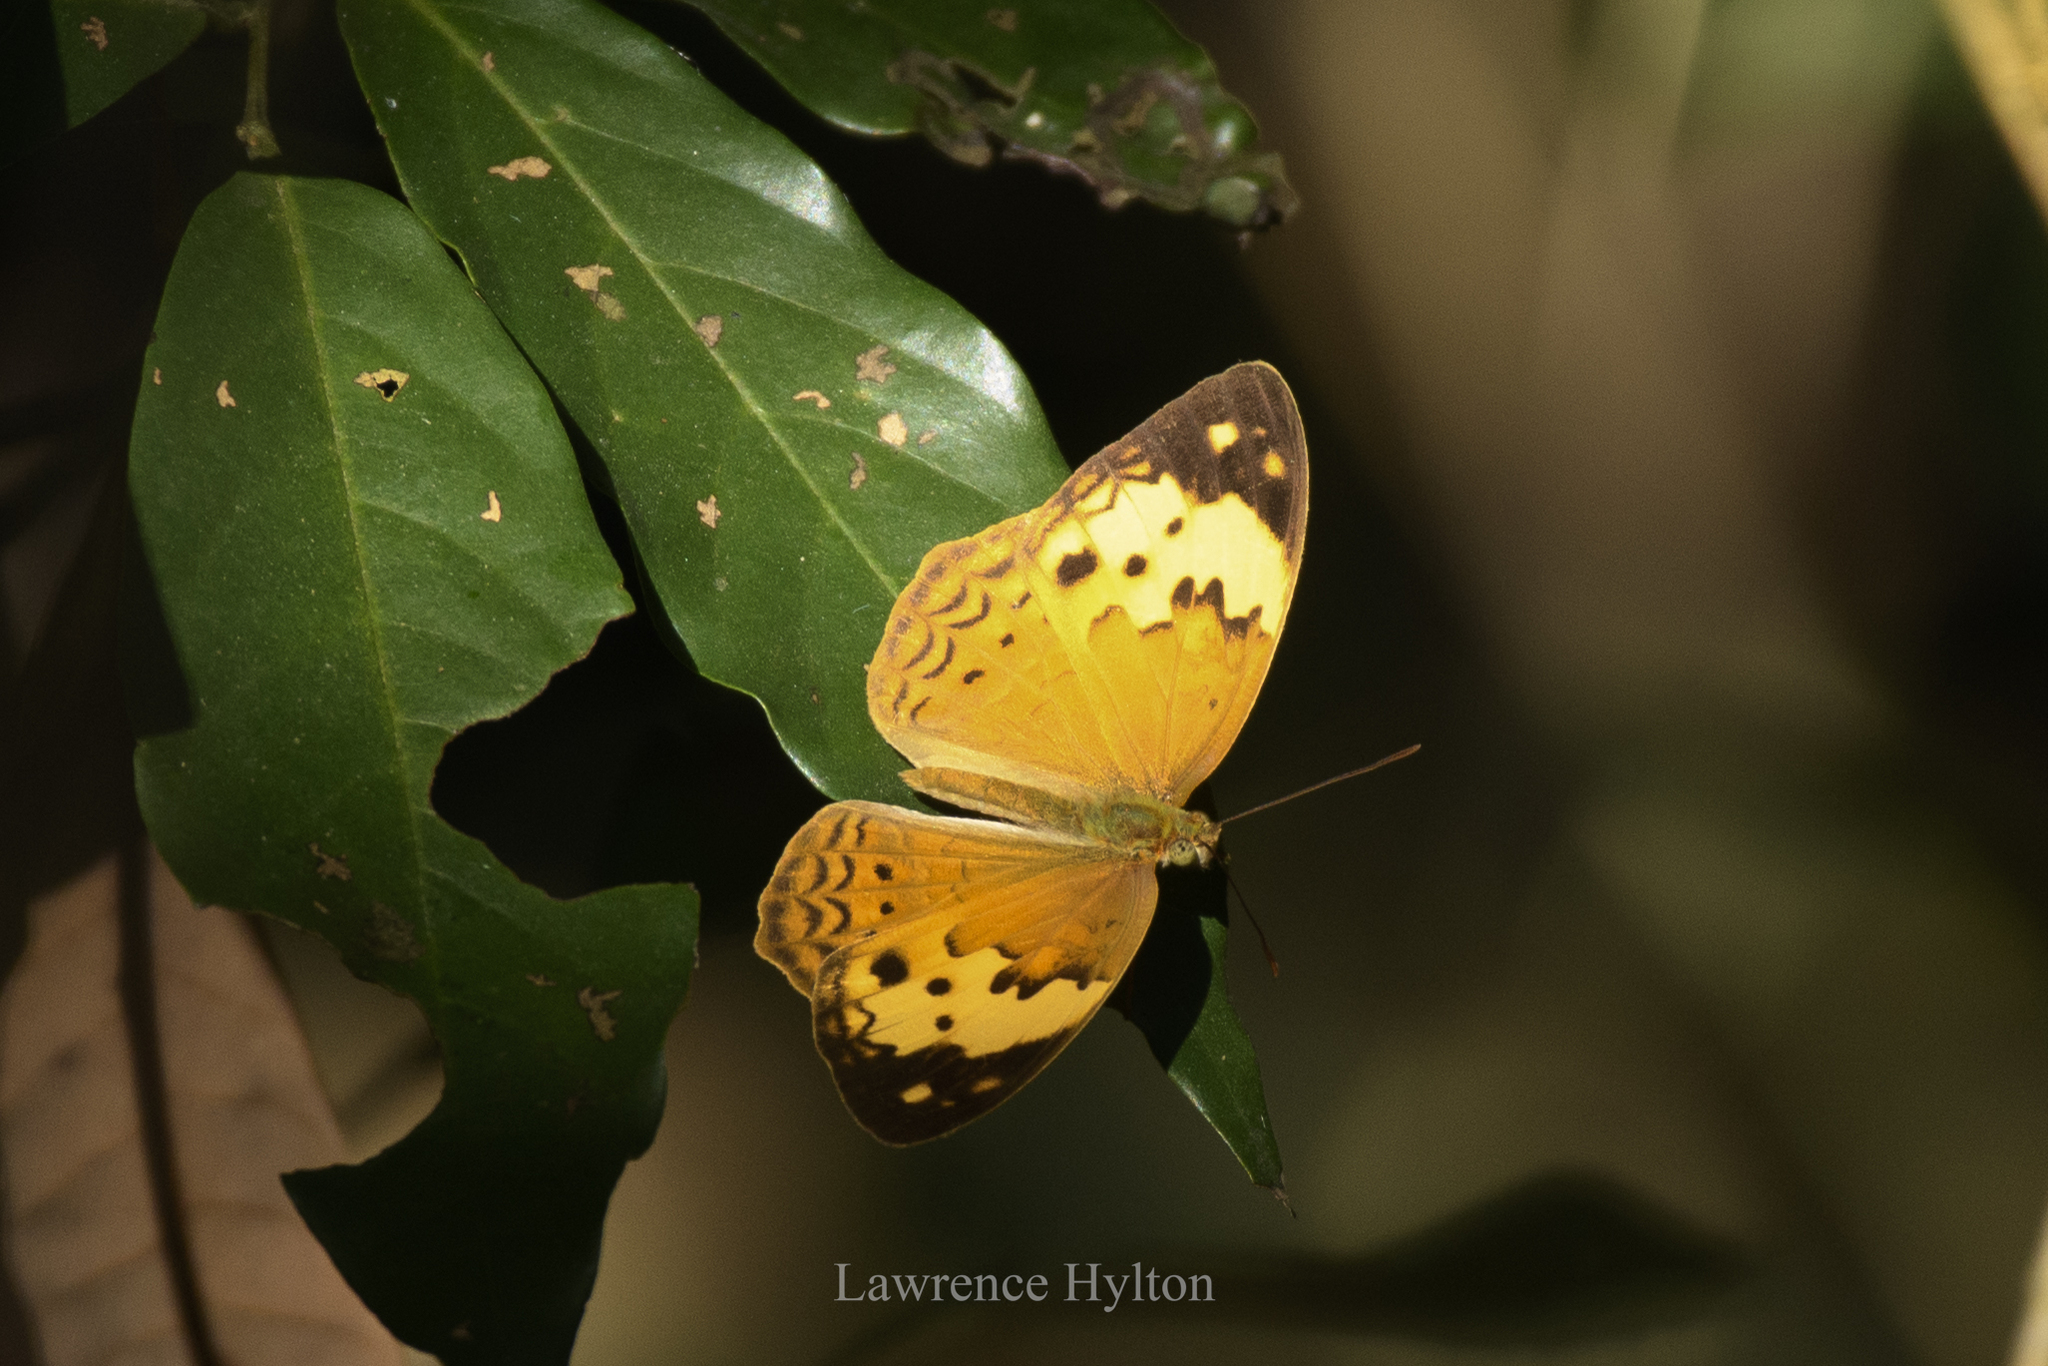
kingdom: Animalia
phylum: Arthropoda
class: Insecta
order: Lepidoptera
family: Nymphalidae
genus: Cupha
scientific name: Cupha erymanthis
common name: Rustic
